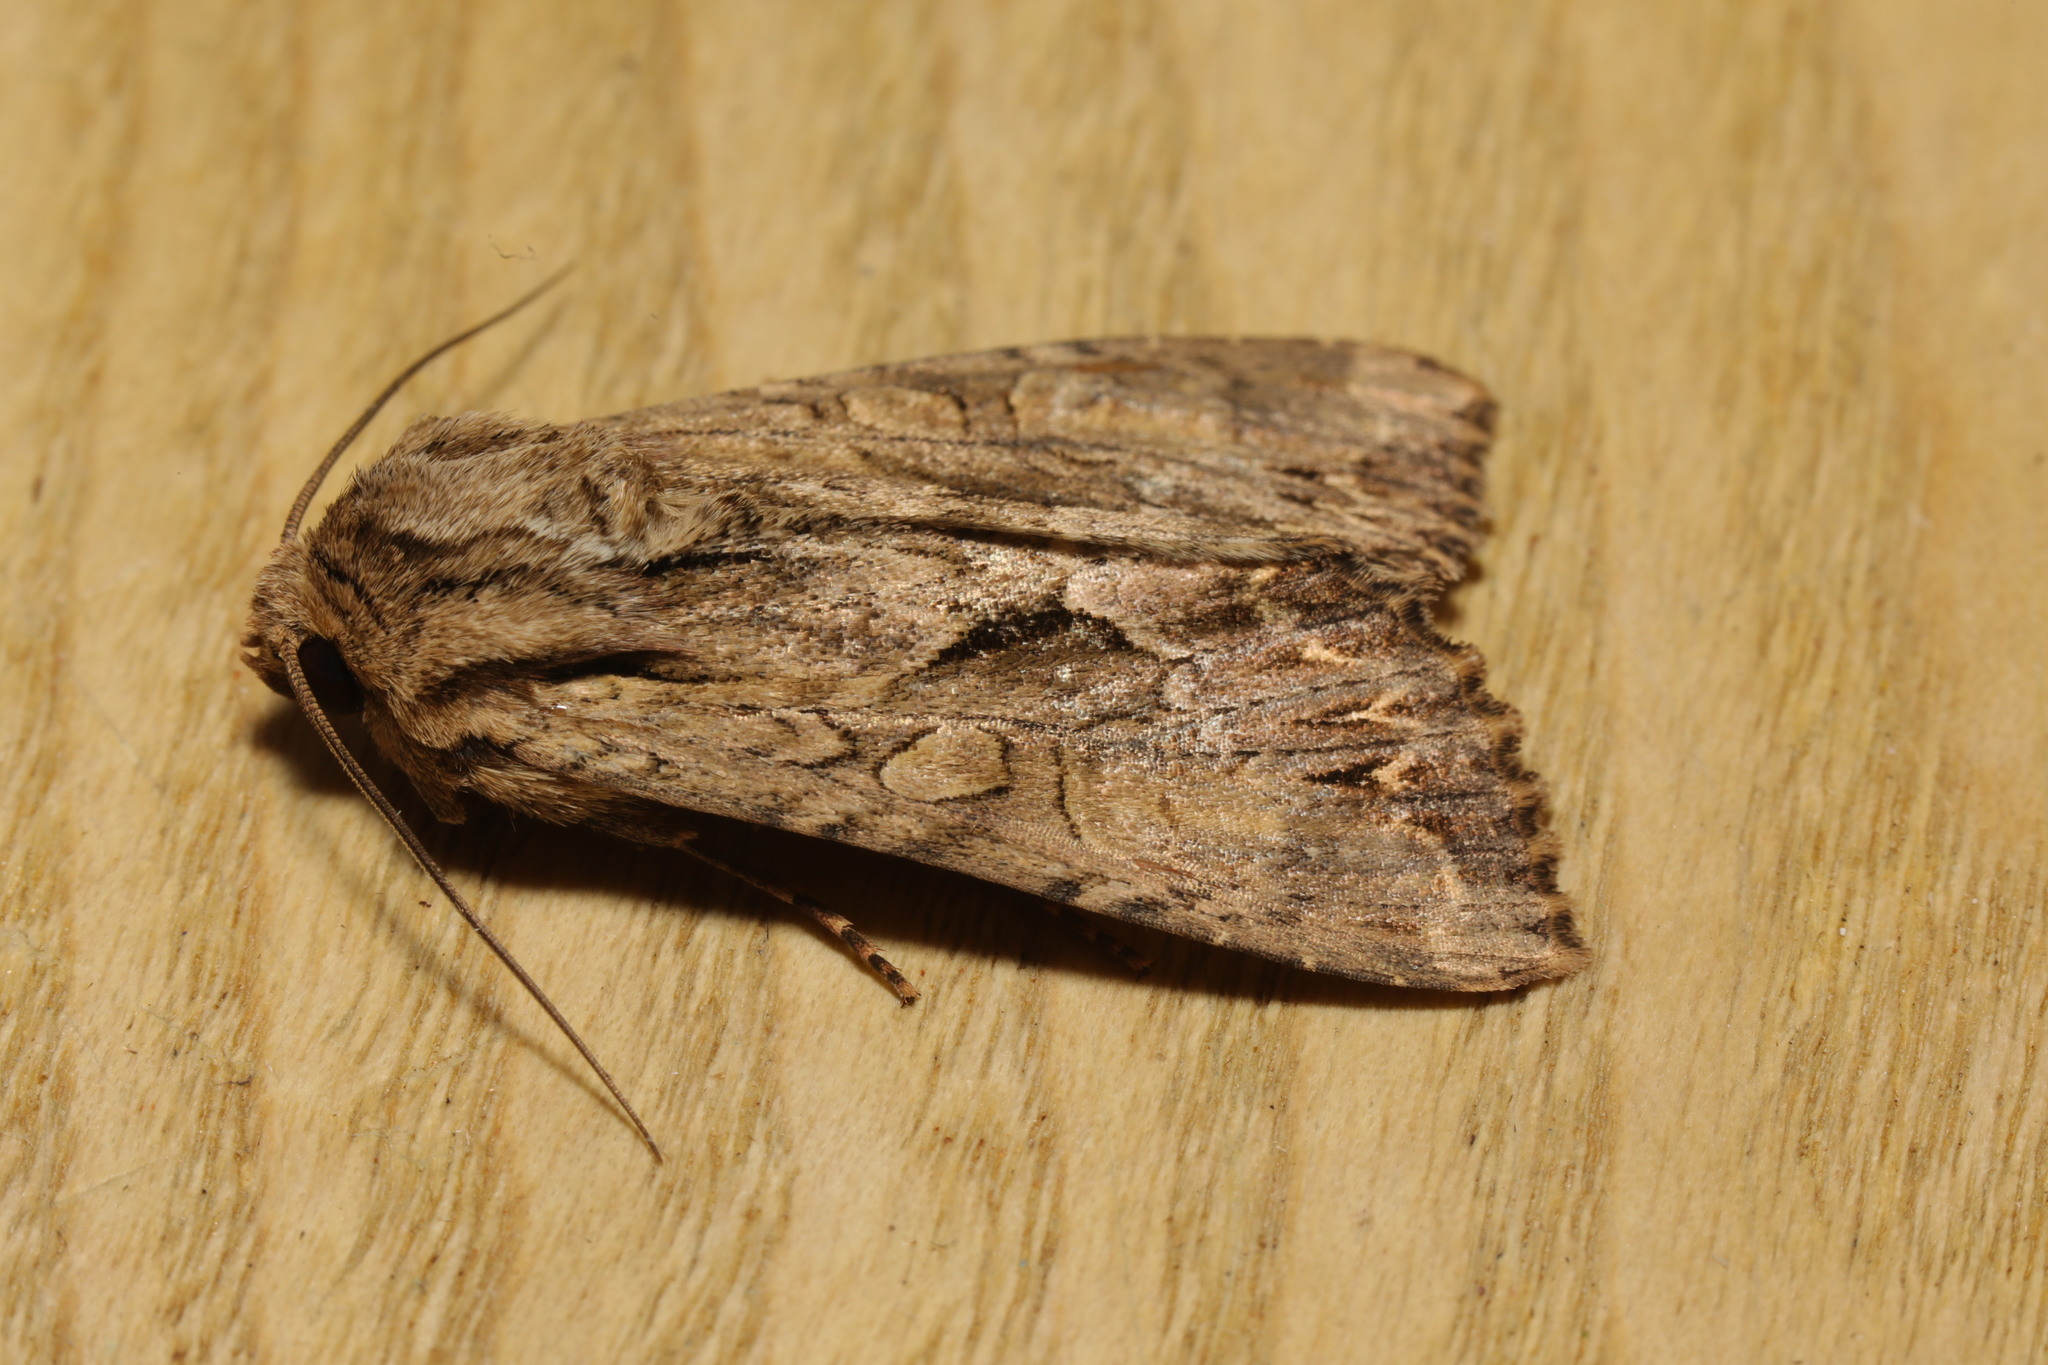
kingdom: Animalia
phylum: Arthropoda
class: Insecta
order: Lepidoptera
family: Noctuidae
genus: Apamea
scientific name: Apamea monoglypha
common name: Dark arches
